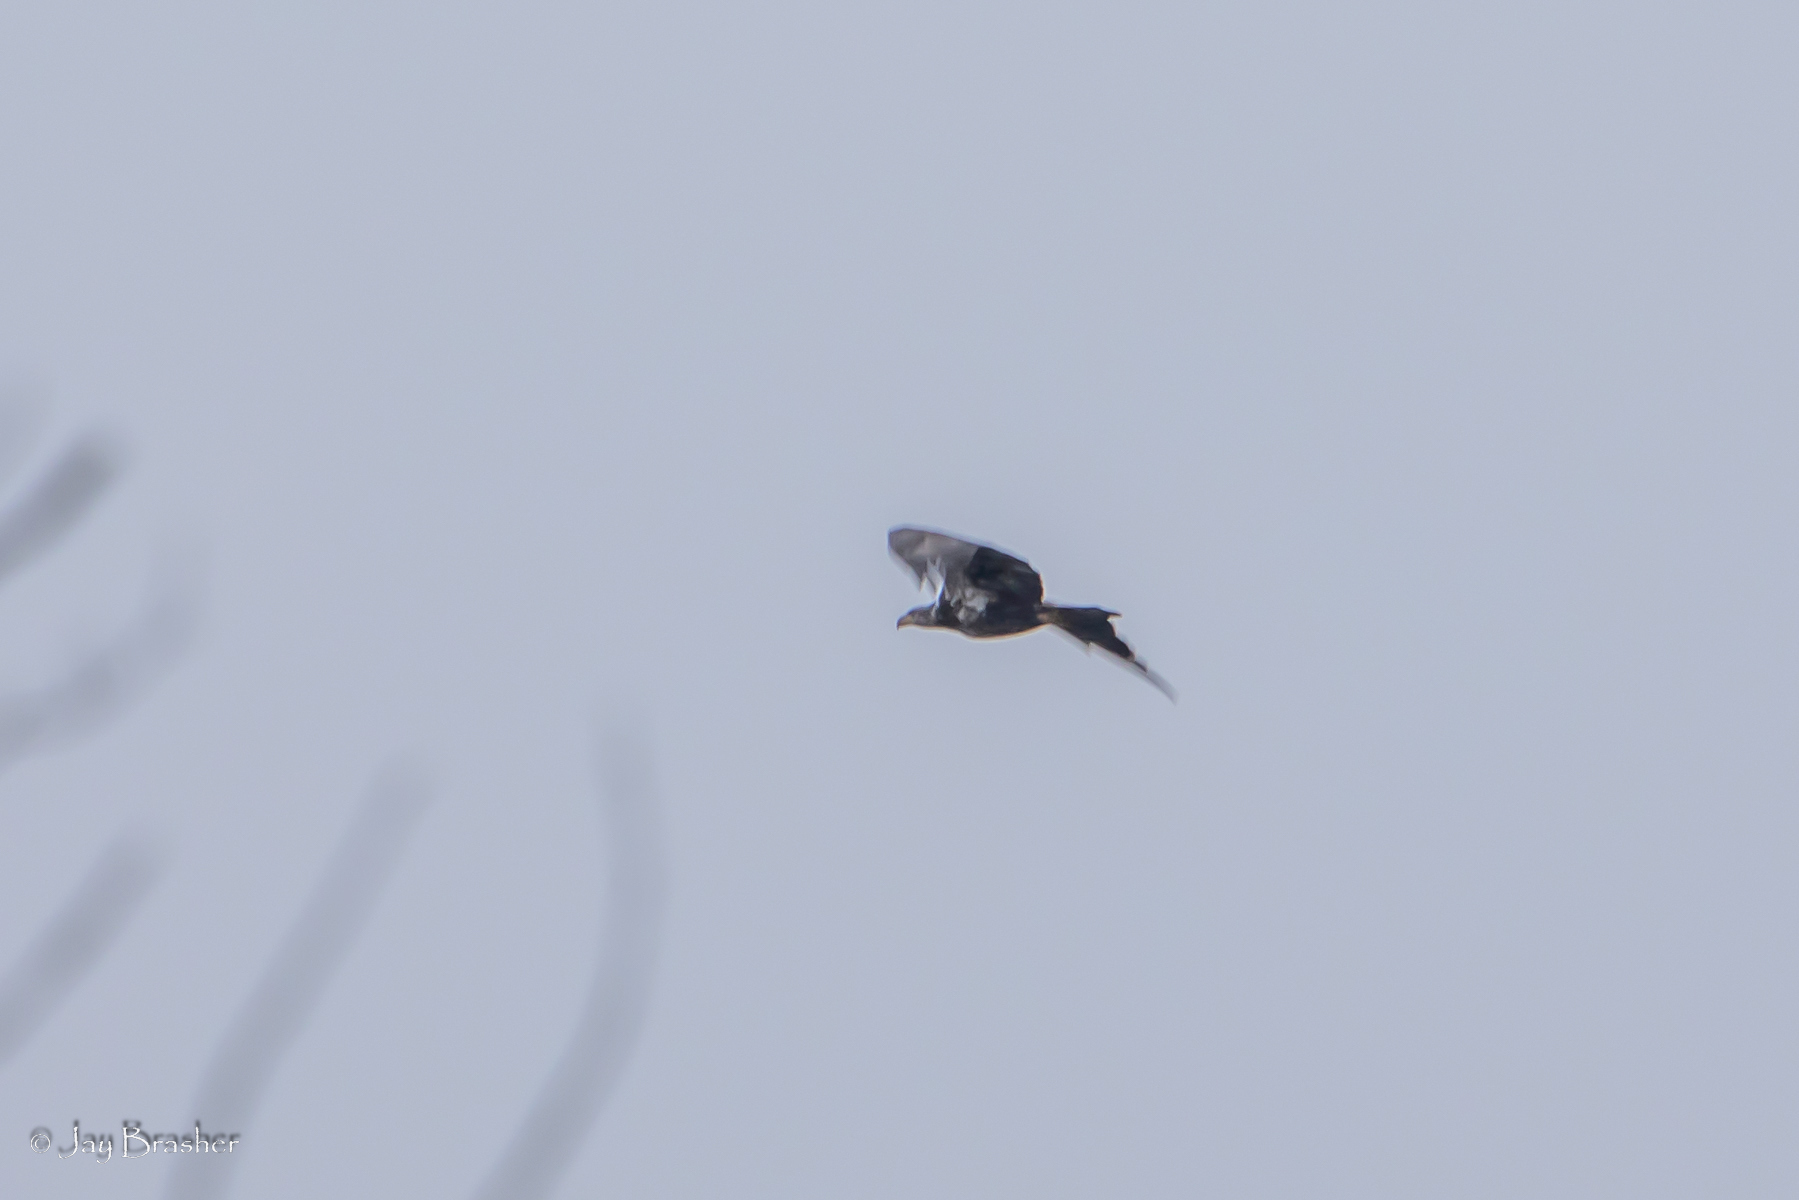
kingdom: Animalia
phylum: Chordata
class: Aves
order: Accipitriformes
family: Accipitridae
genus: Haliaeetus
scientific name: Haliaeetus leucocephalus
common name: Bald eagle
